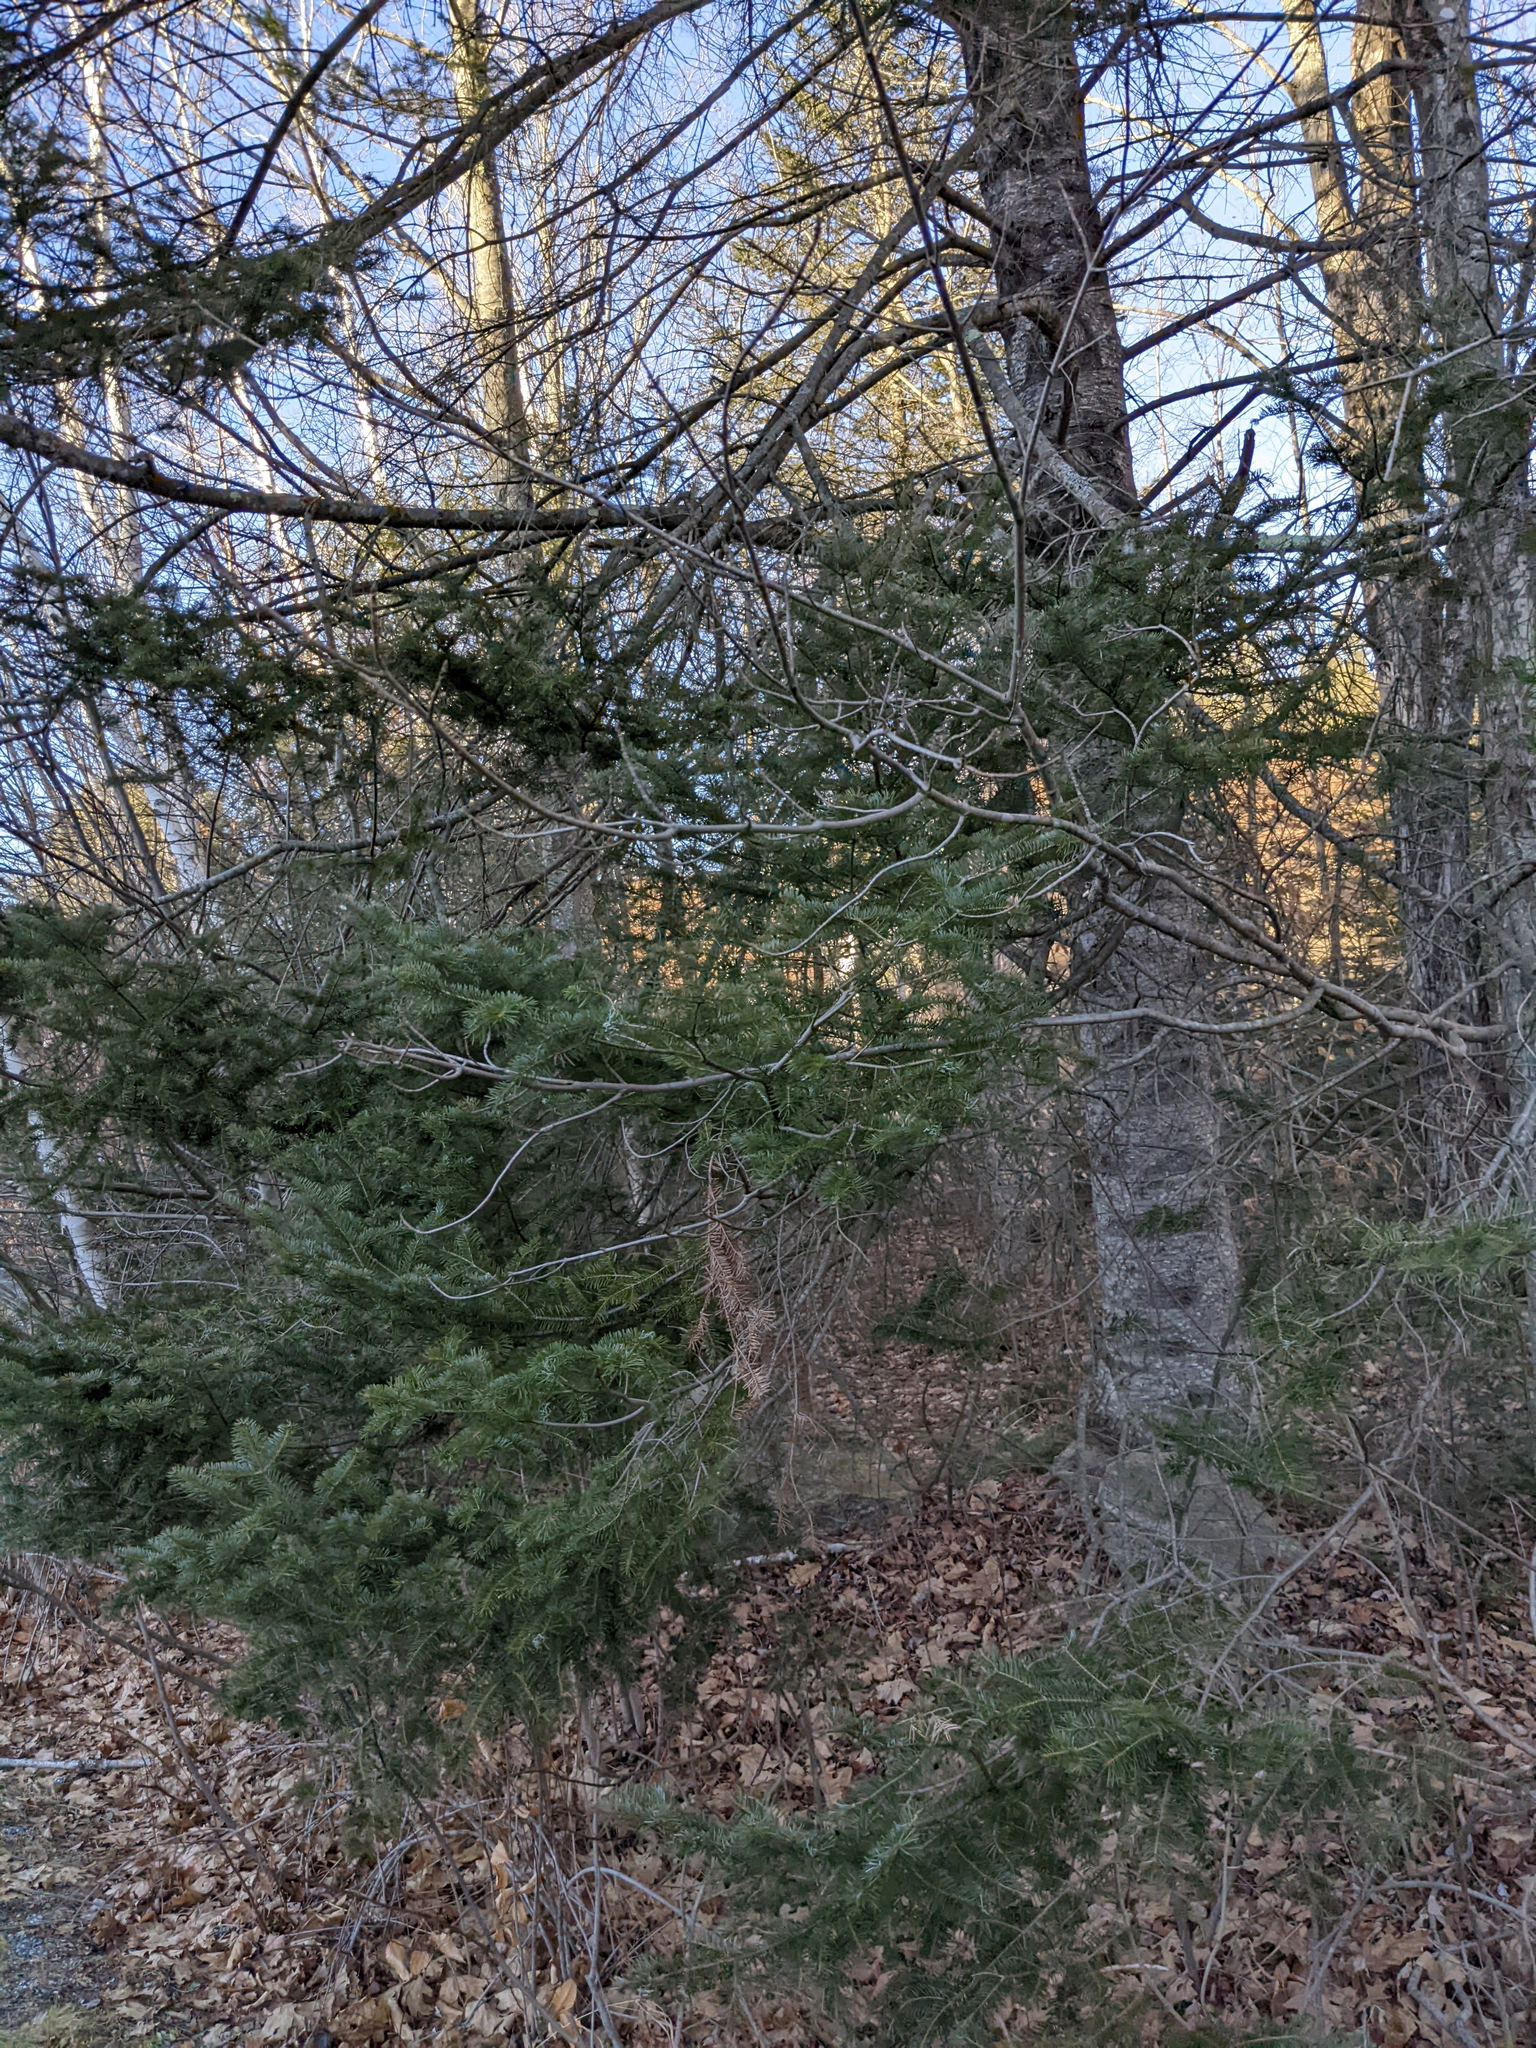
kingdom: Plantae
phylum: Tracheophyta
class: Pinopsida
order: Pinales
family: Pinaceae
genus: Abies
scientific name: Abies balsamea
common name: Balsam fir
